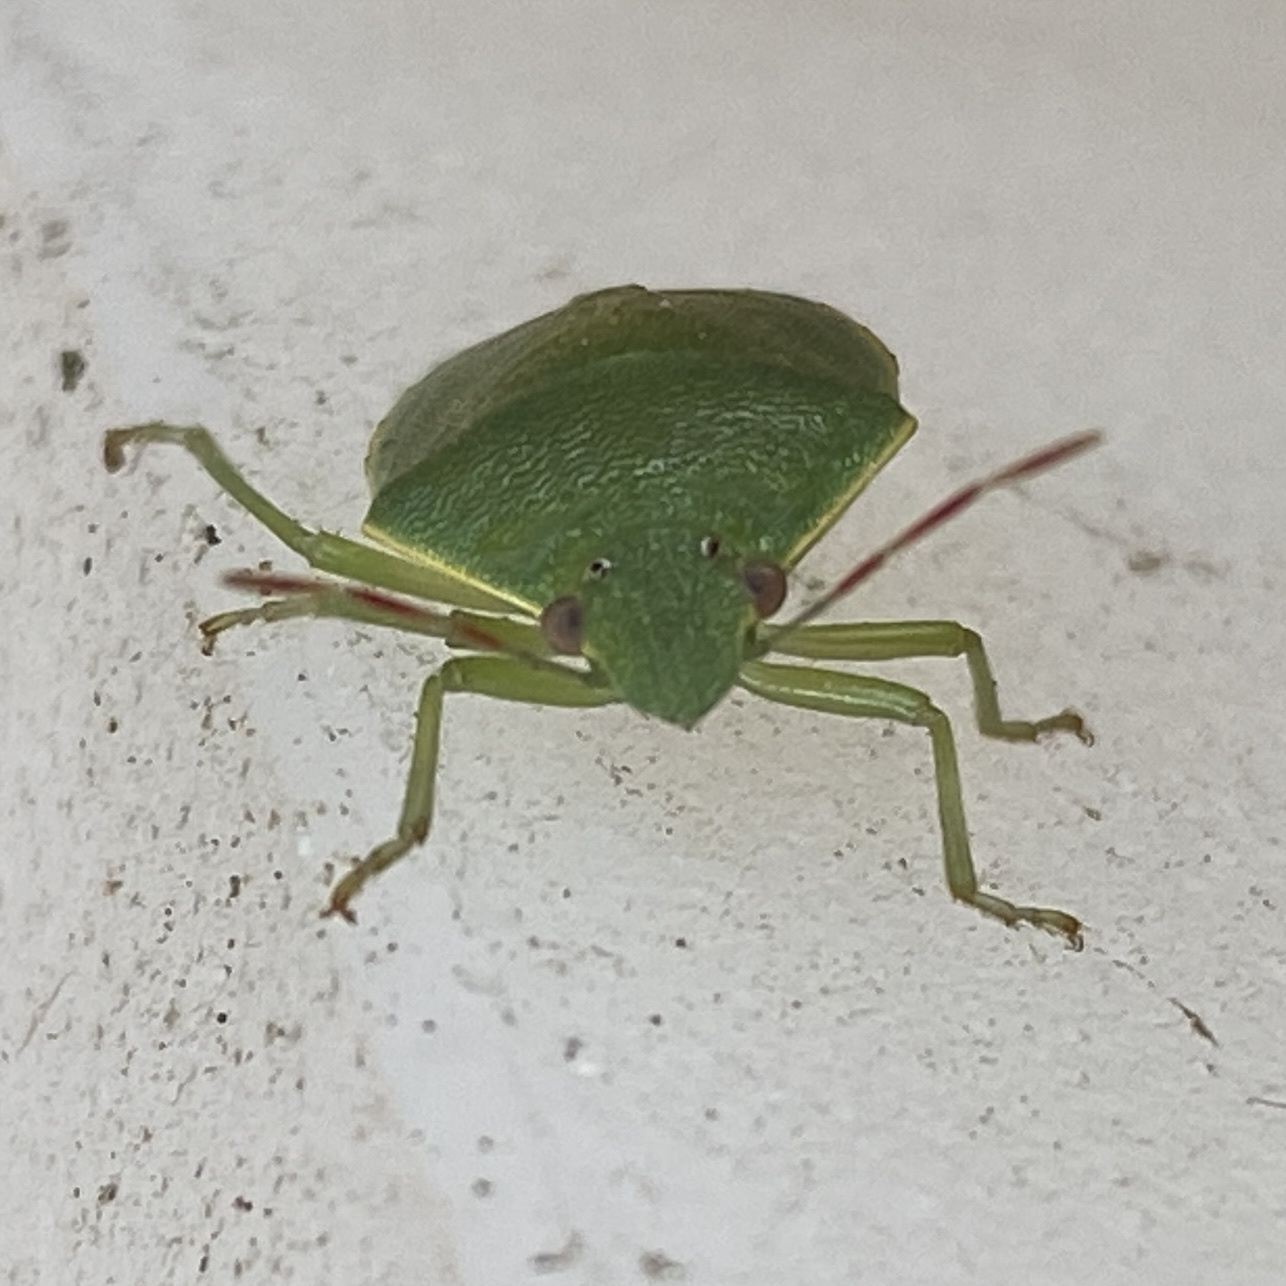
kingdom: Animalia
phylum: Arthropoda
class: Insecta
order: Hemiptera
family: Pentatomidae
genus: Acrosternum
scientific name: Acrosternum heegeri
